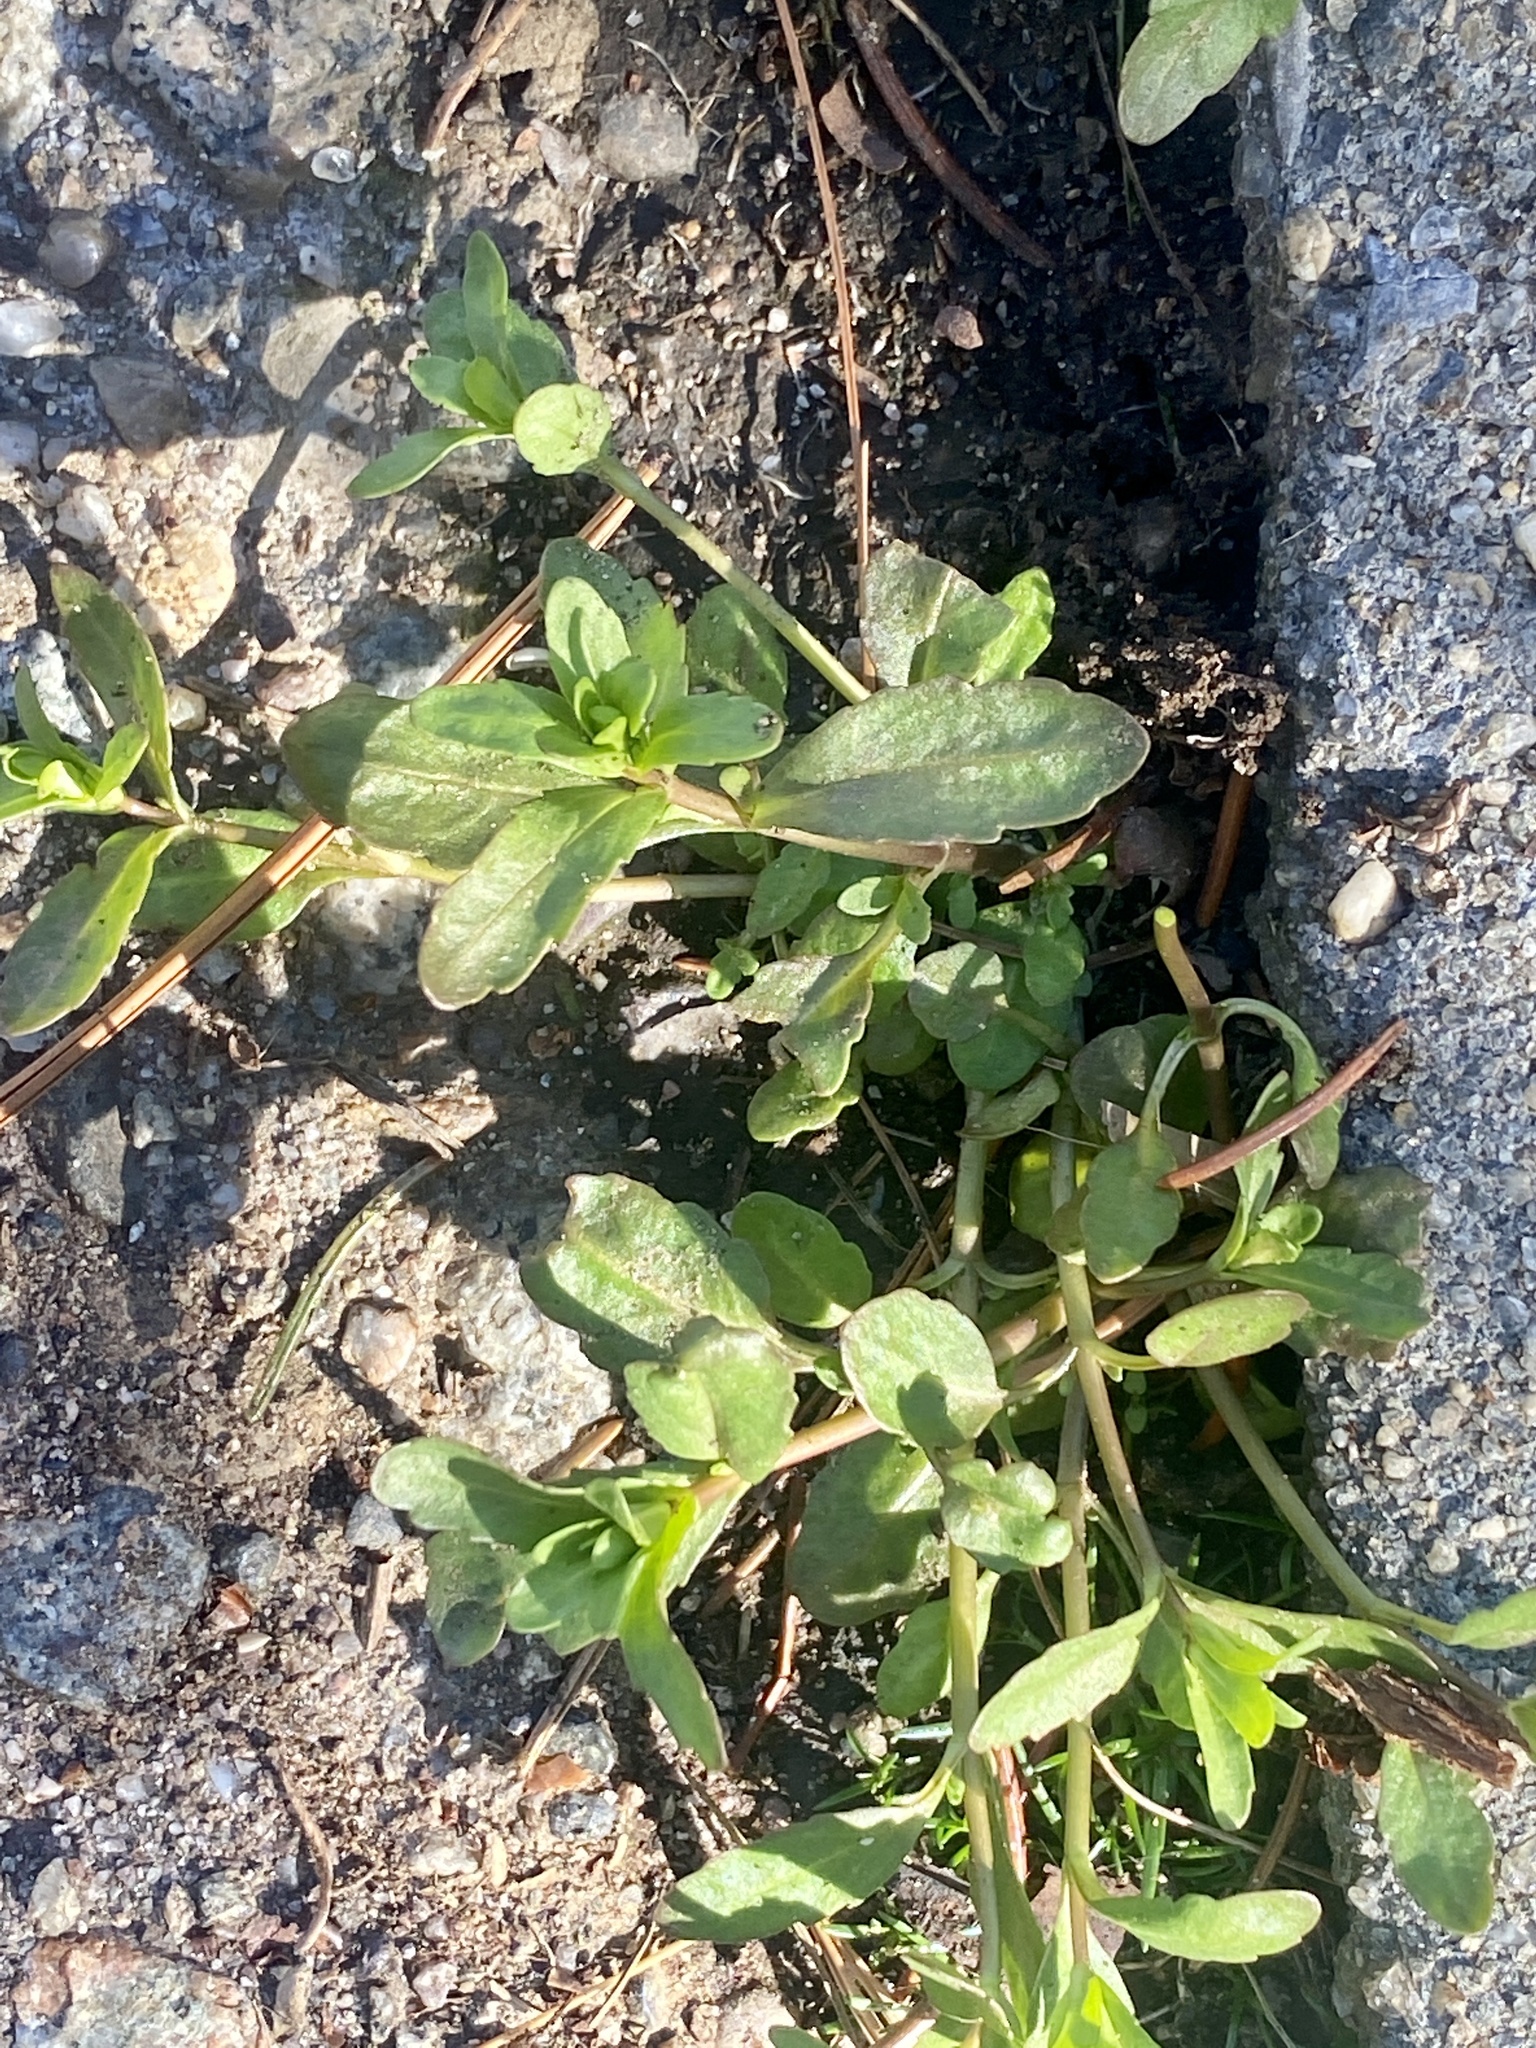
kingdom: Plantae
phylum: Tracheophyta
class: Magnoliopsida
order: Lamiales
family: Plantaginaceae
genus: Veronica
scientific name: Veronica peregrina
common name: Neckweed
